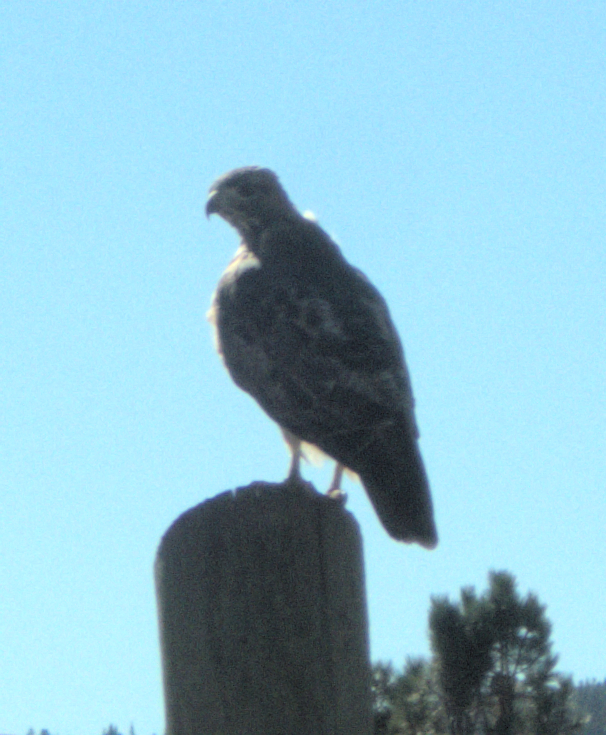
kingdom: Animalia
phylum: Chordata
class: Aves
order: Accipitriformes
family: Accipitridae
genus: Buteo
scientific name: Buteo jamaicensis
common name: Red-tailed hawk
